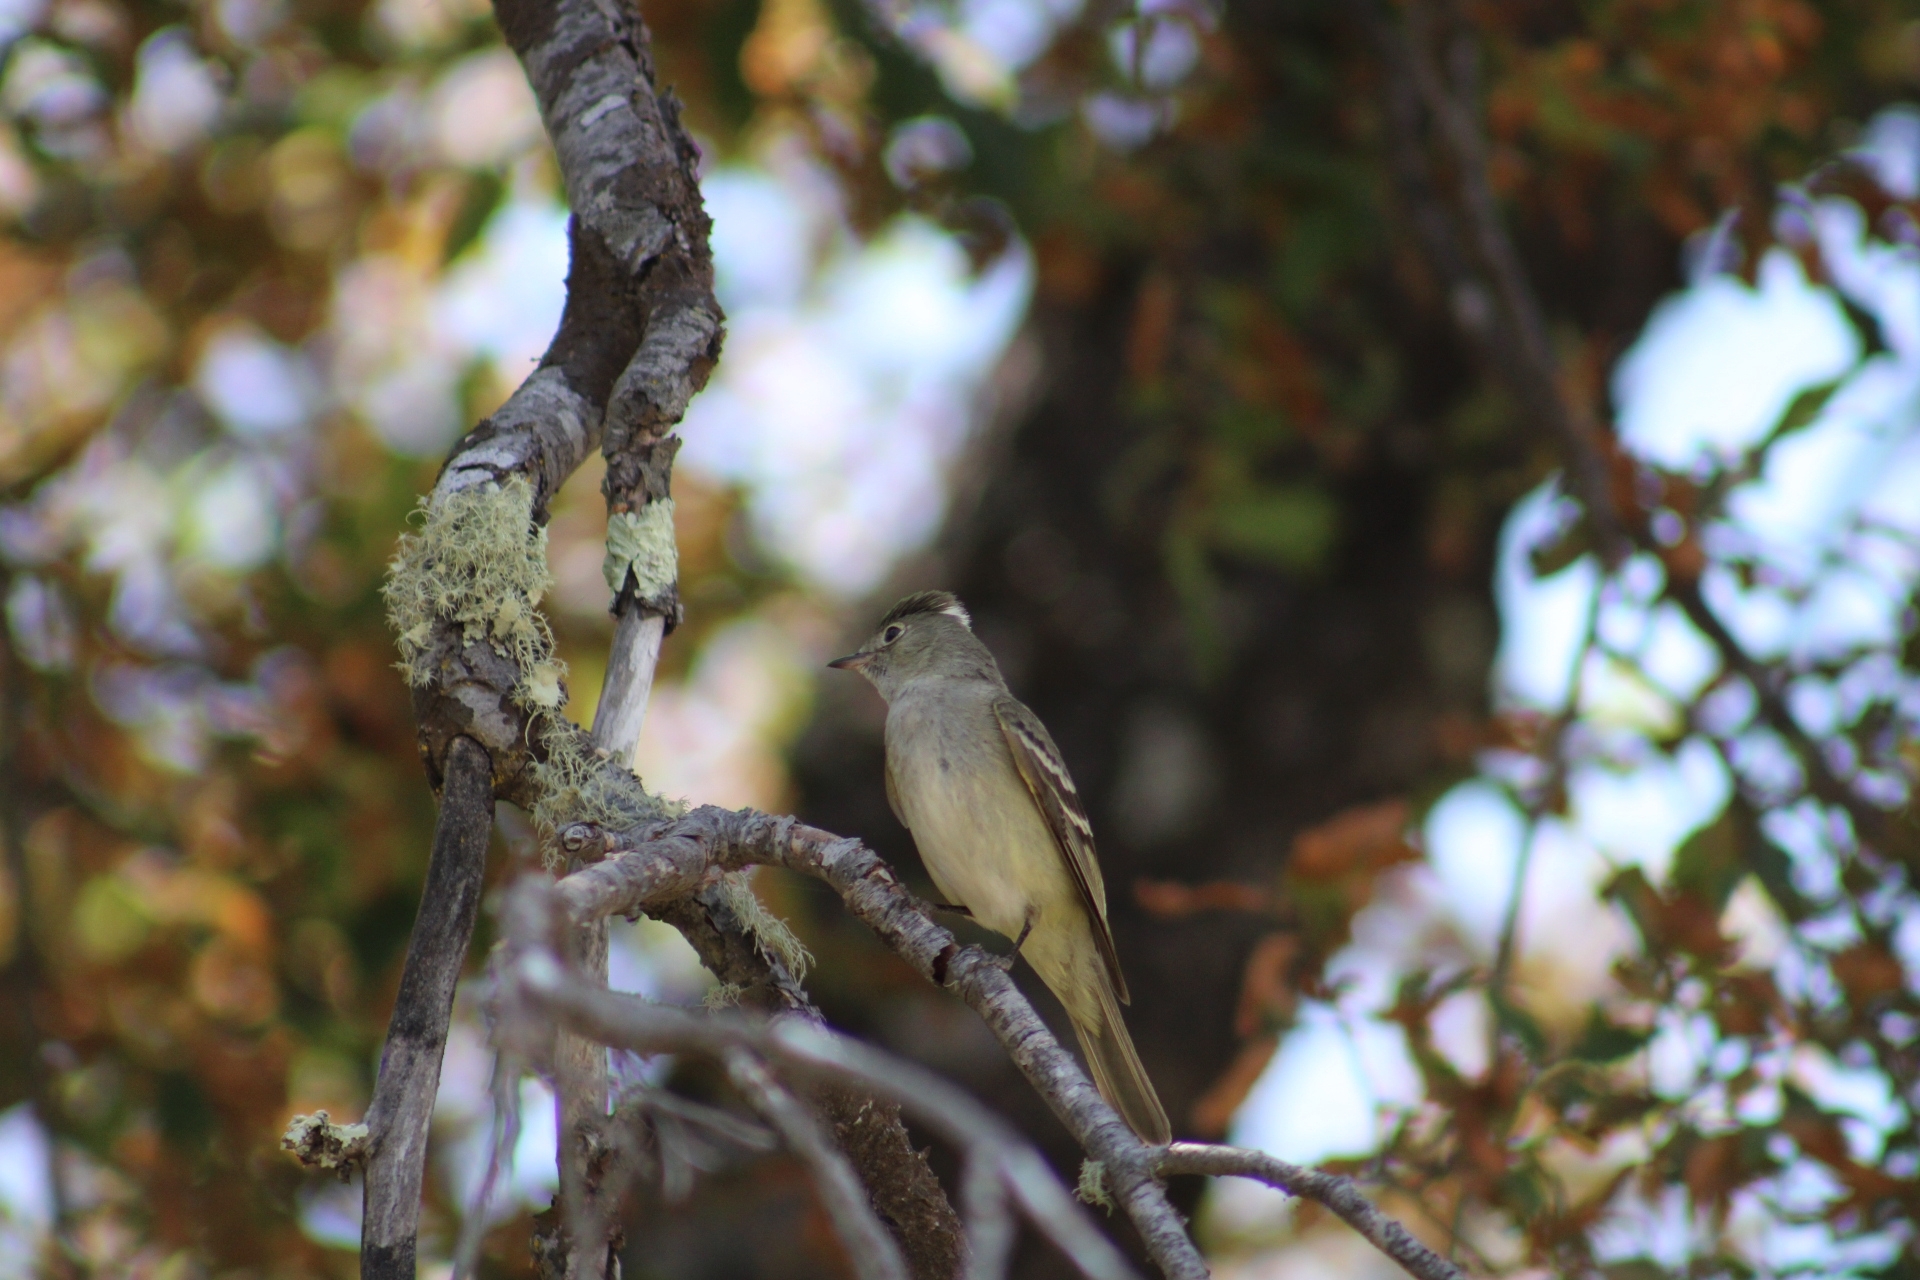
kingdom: Animalia
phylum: Chordata
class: Aves
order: Passeriformes
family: Tyrannidae
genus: Elaenia
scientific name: Elaenia albiceps
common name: White-crested elaenia
